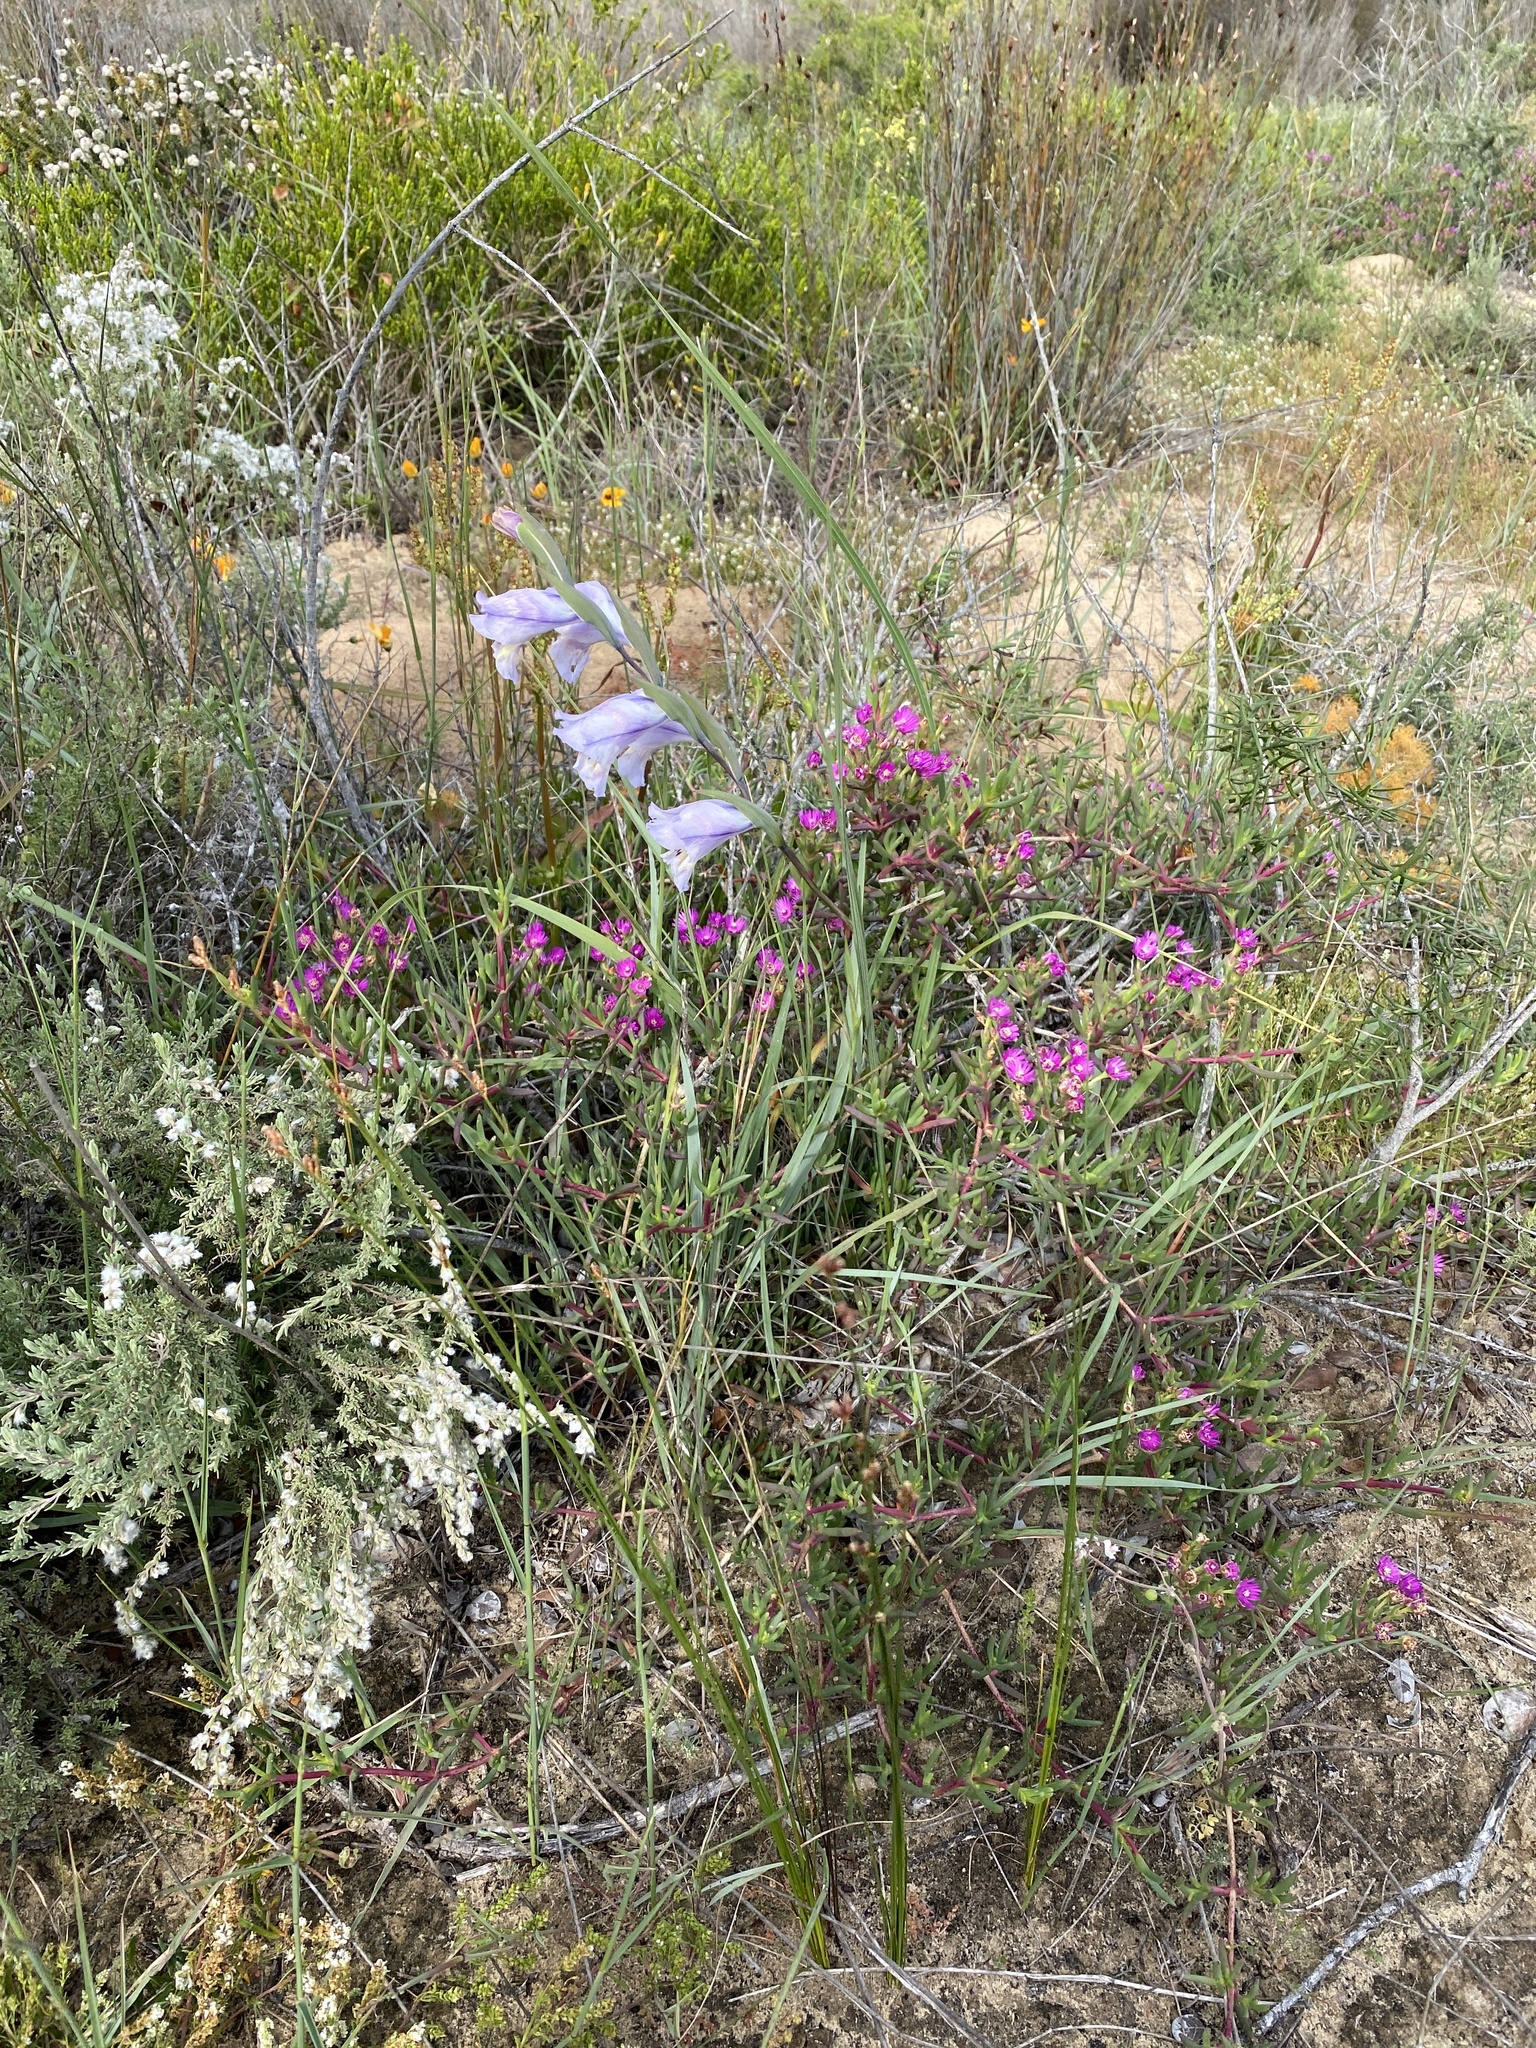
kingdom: Plantae
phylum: Tracheophyta
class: Liliopsida
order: Asparagales
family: Iridaceae
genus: Gladiolus
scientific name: Gladiolus carinatus
